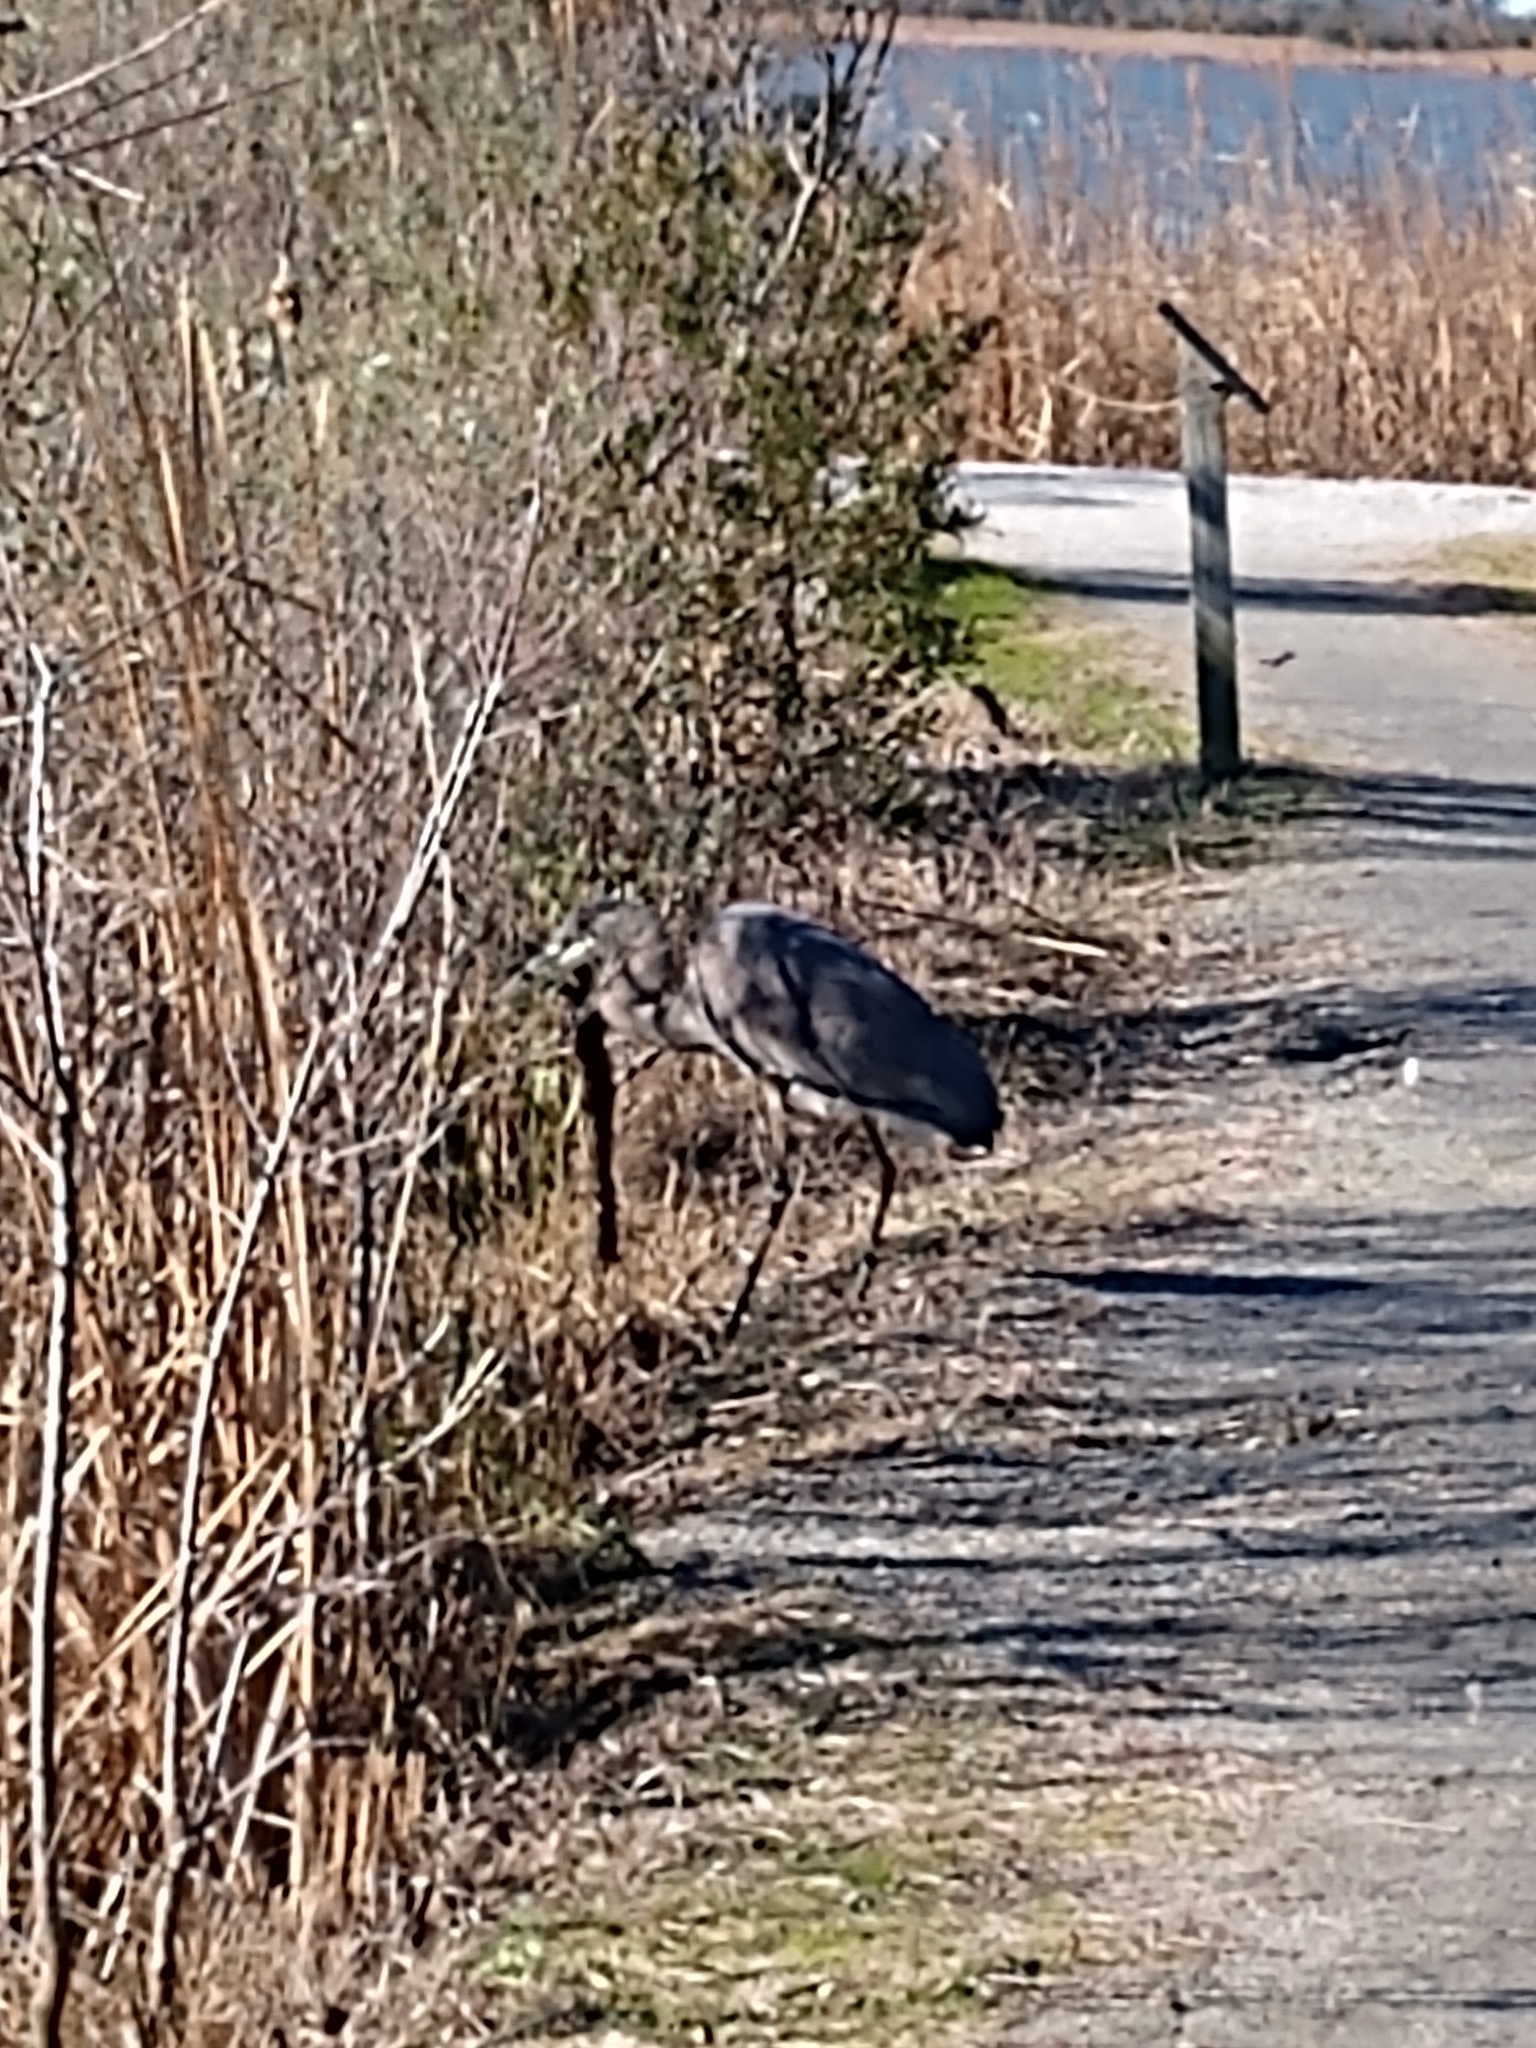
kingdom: Animalia
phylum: Chordata
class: Aves
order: Pelecaniformes
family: Ardeidae
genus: Ardea
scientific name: Ardea herodias
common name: Great blue heron
